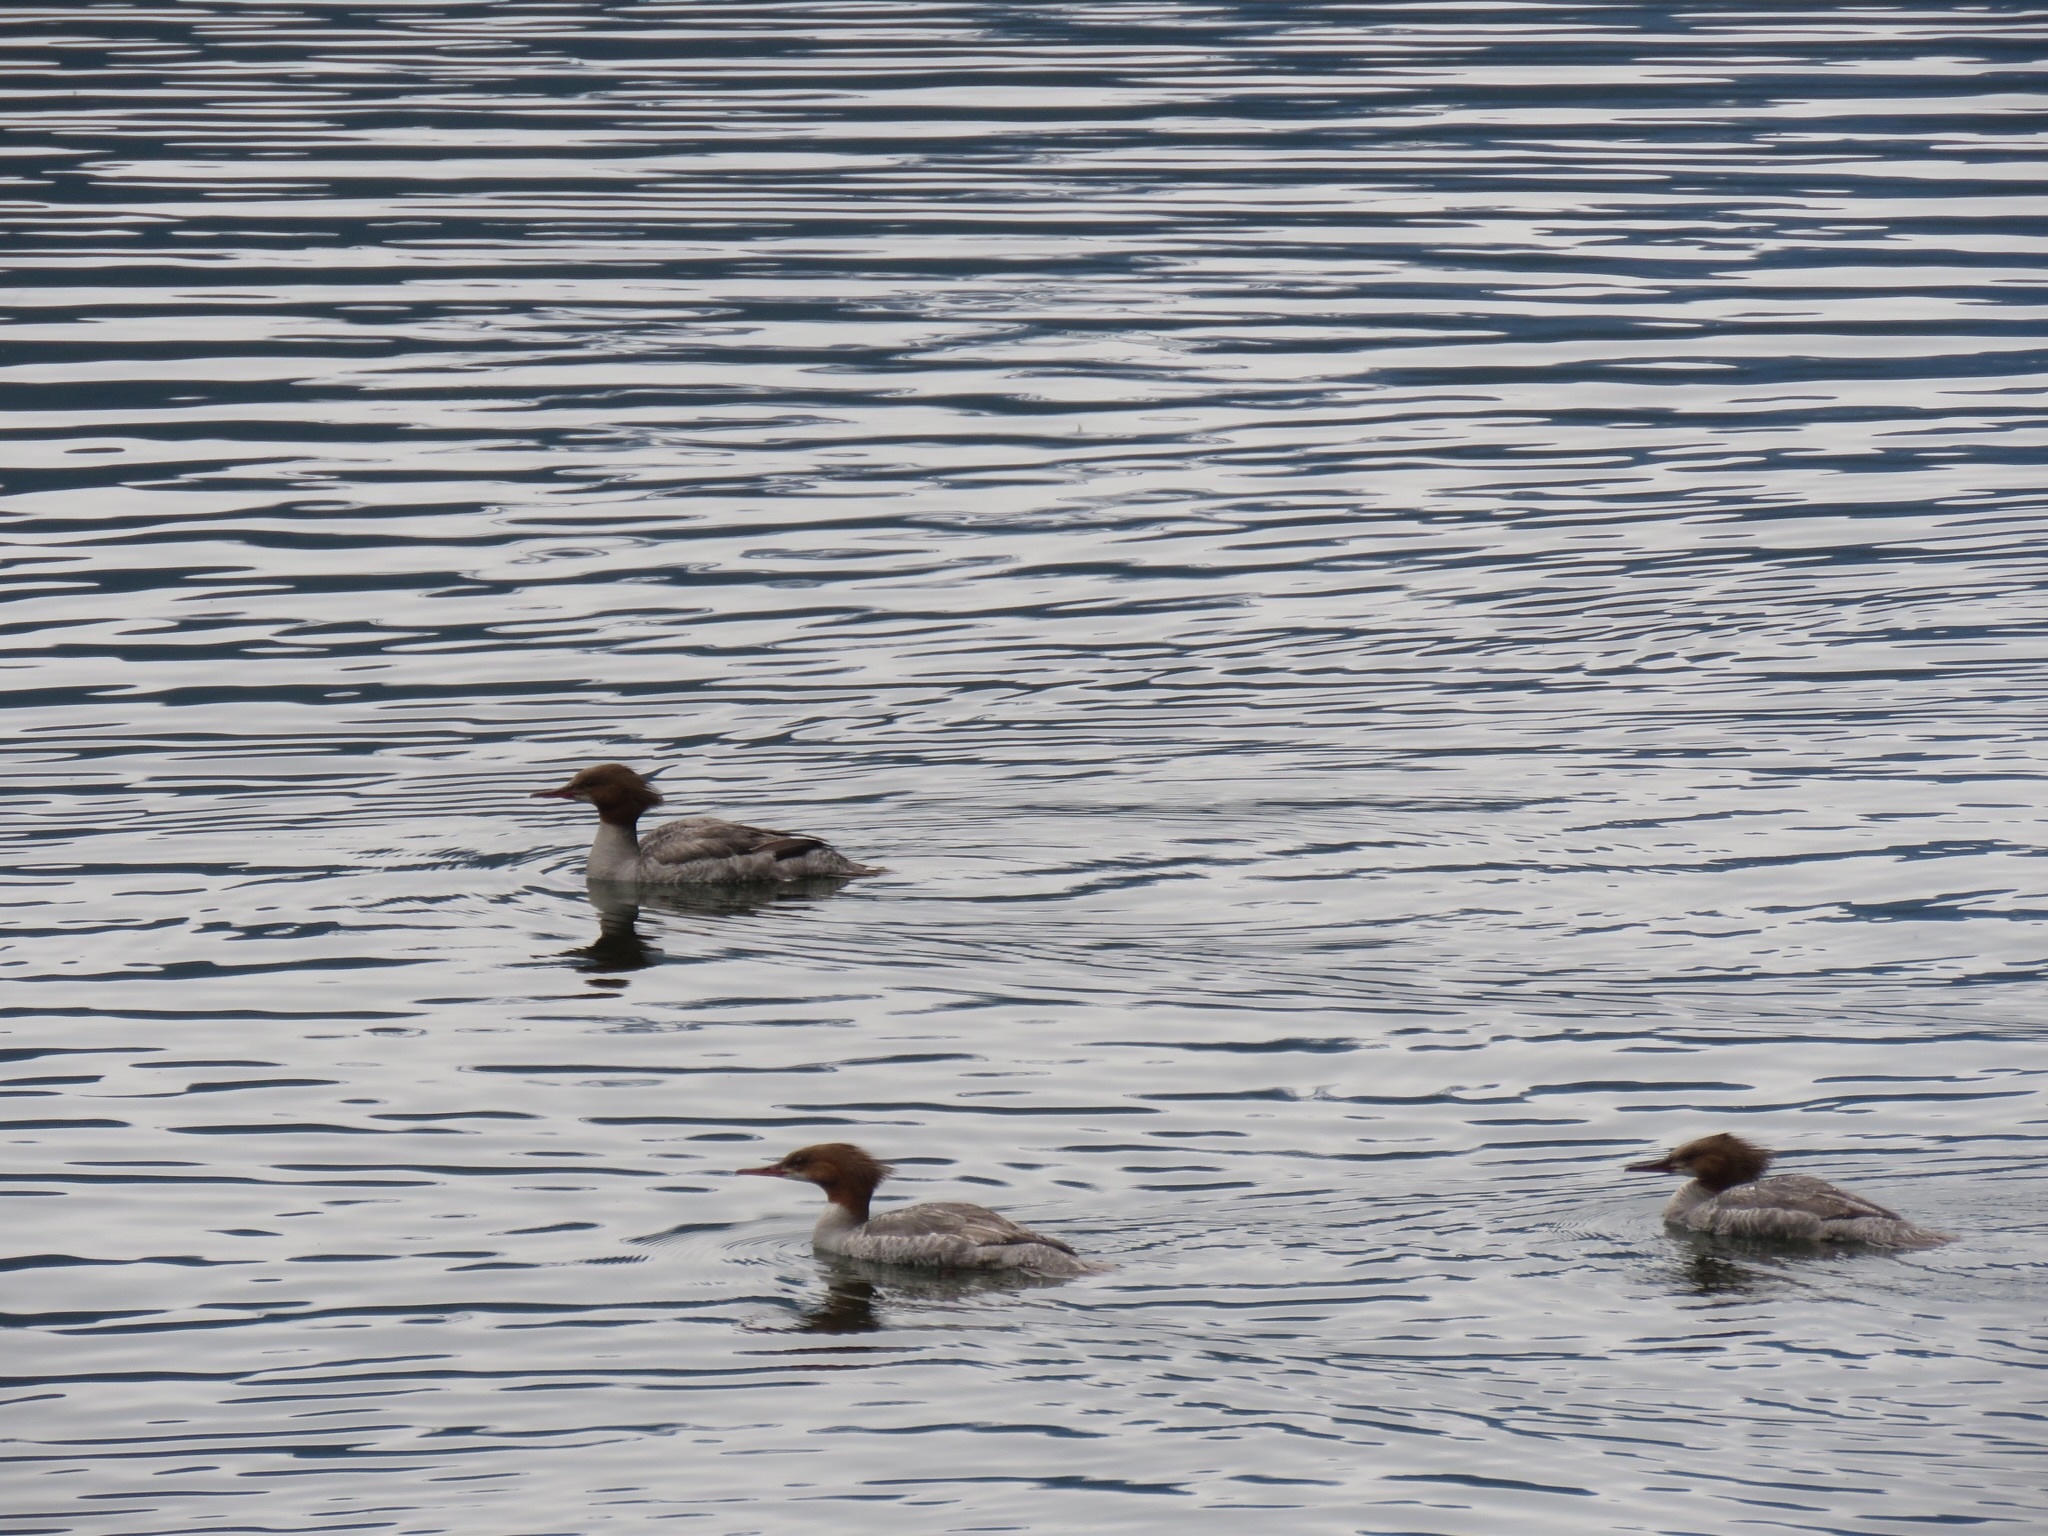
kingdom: Animalia
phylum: Chordata
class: Aves
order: Anseriformes
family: Anatidae
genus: Mergus
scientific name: Mergus merganser
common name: Common merganser
